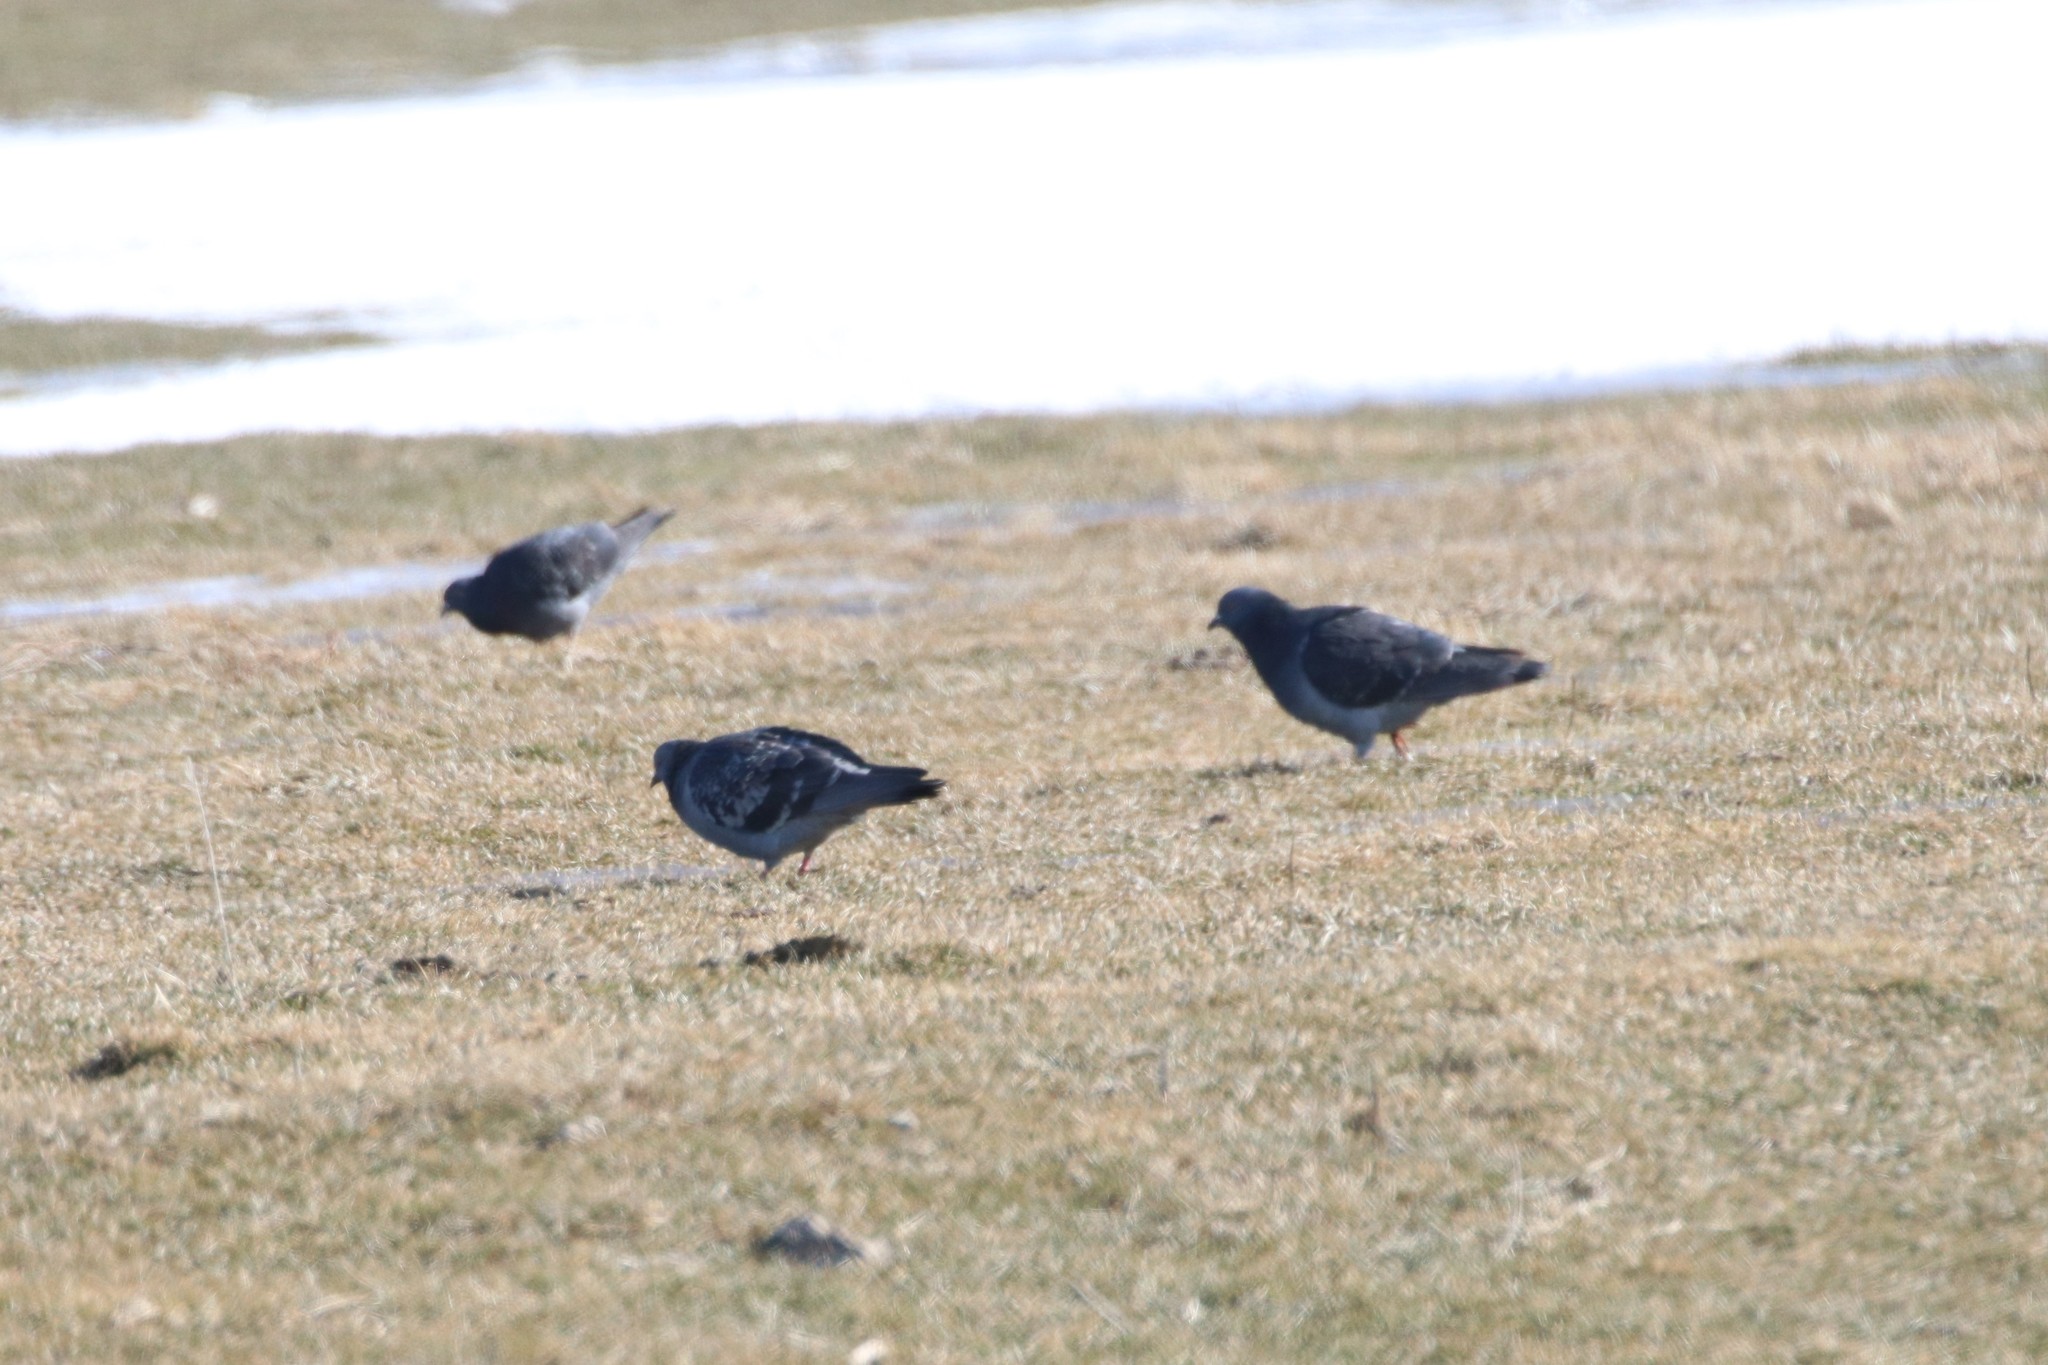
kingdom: Animalia
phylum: Chordata
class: Aves
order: Columbiformes
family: Columbidae
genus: Columba
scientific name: Columba livia
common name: Rock pigeon
